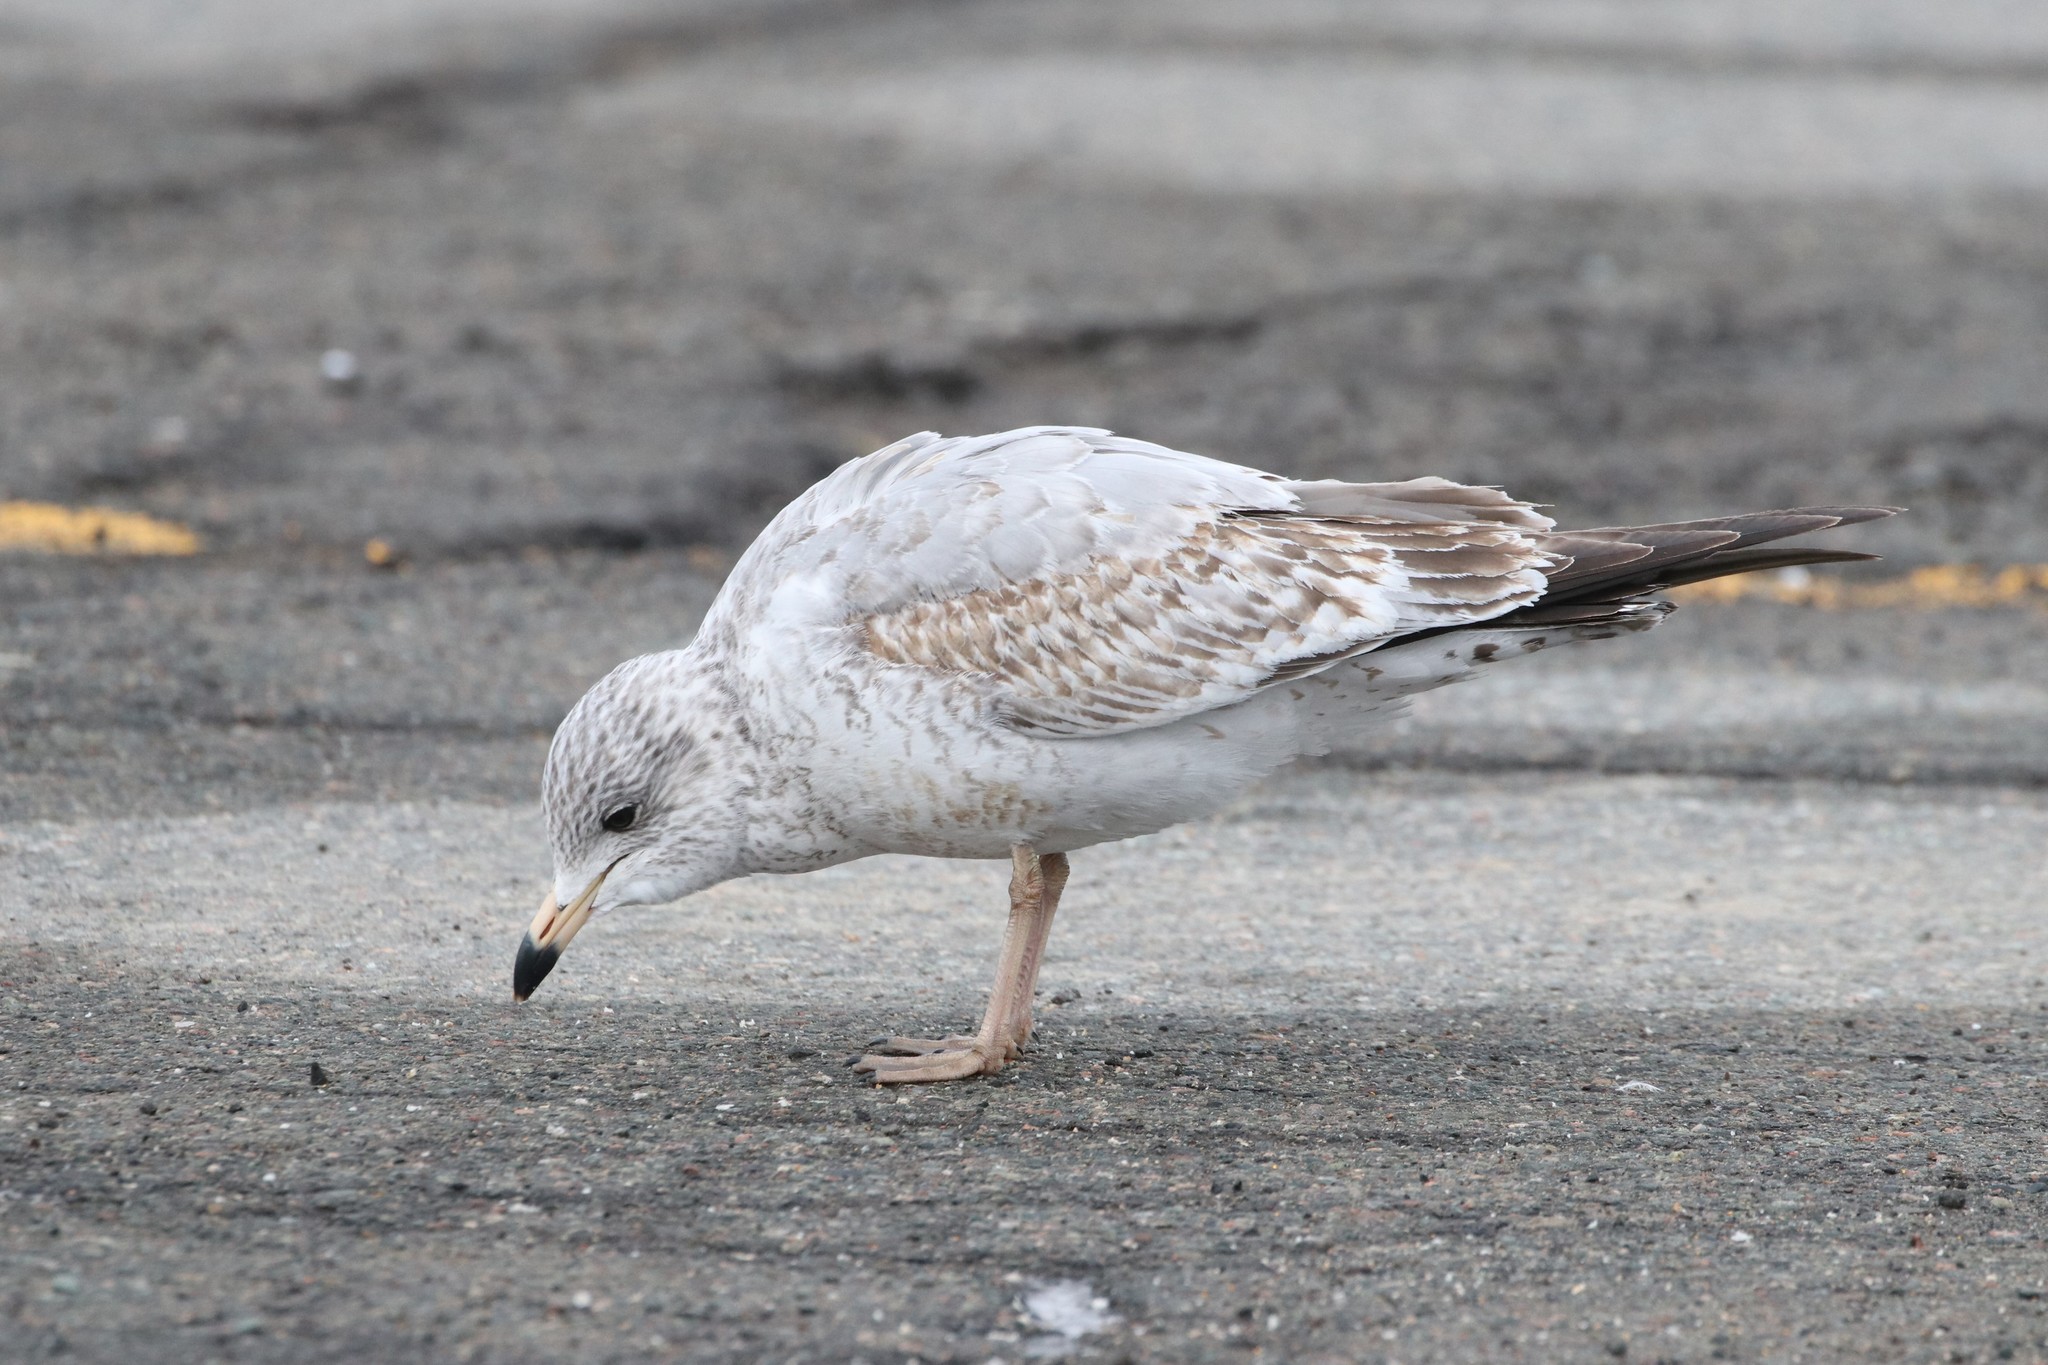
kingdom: Animalia
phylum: Chordata
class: Aves
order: Charadriiformes
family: Laridae
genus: Larus
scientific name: Larus delawarensis
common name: Ring-billed gull
